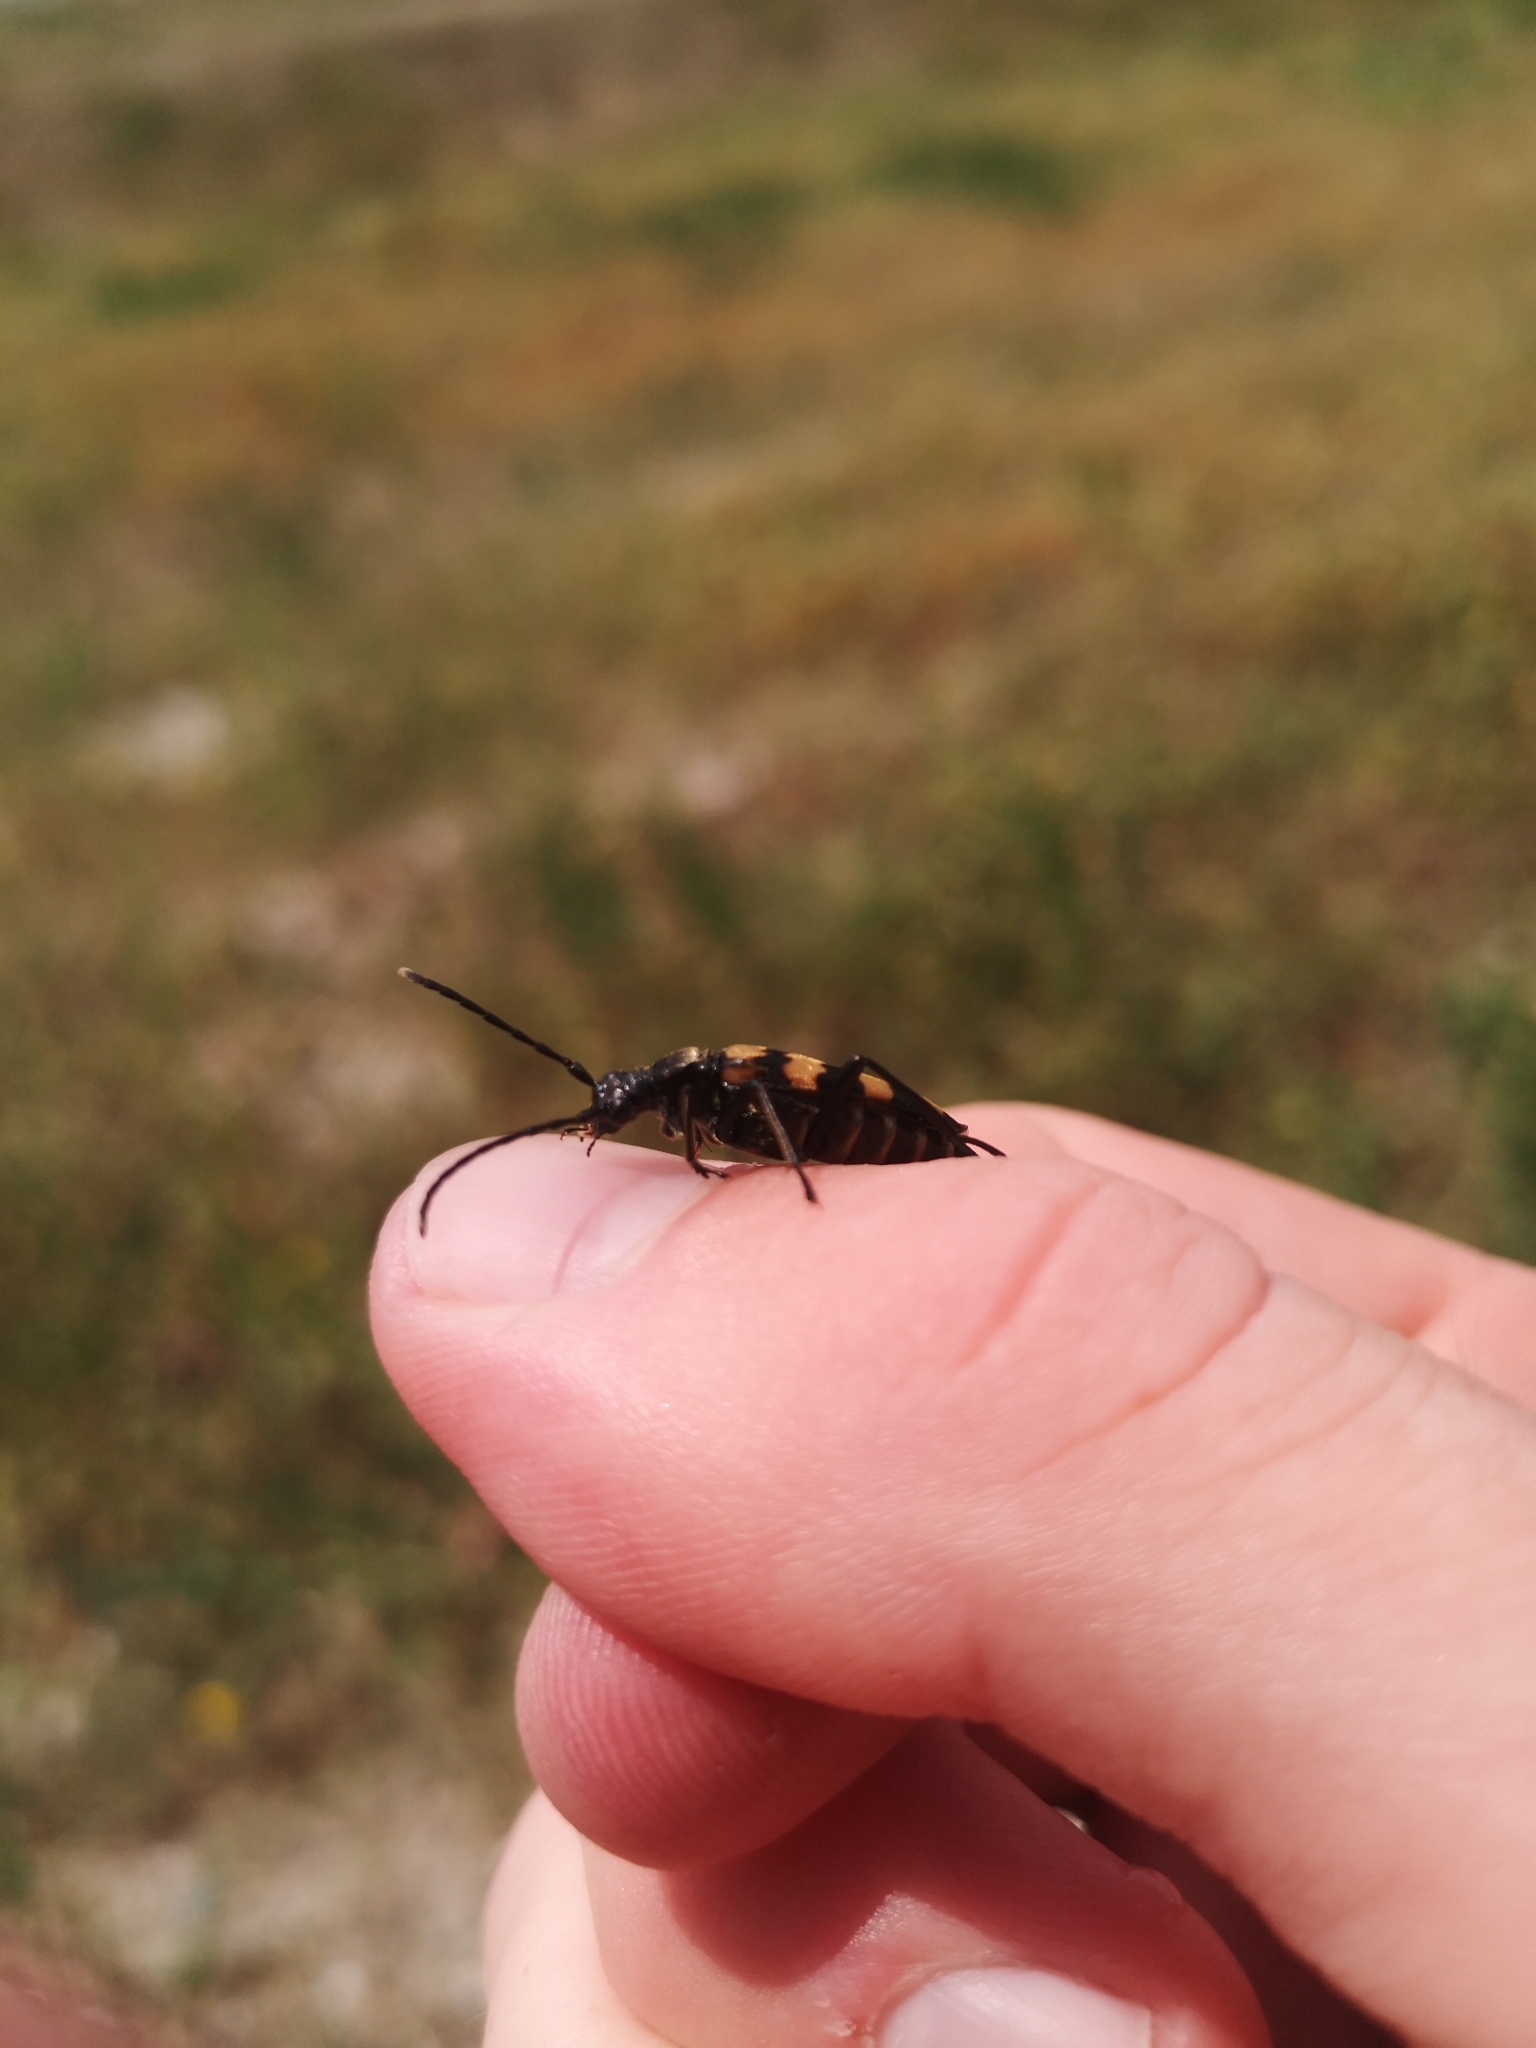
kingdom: Animalia
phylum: Arthropoda
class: Insecta
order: Coleoptera
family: Cerambycidae
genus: Leptura
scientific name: Leptura quadrifasciata
